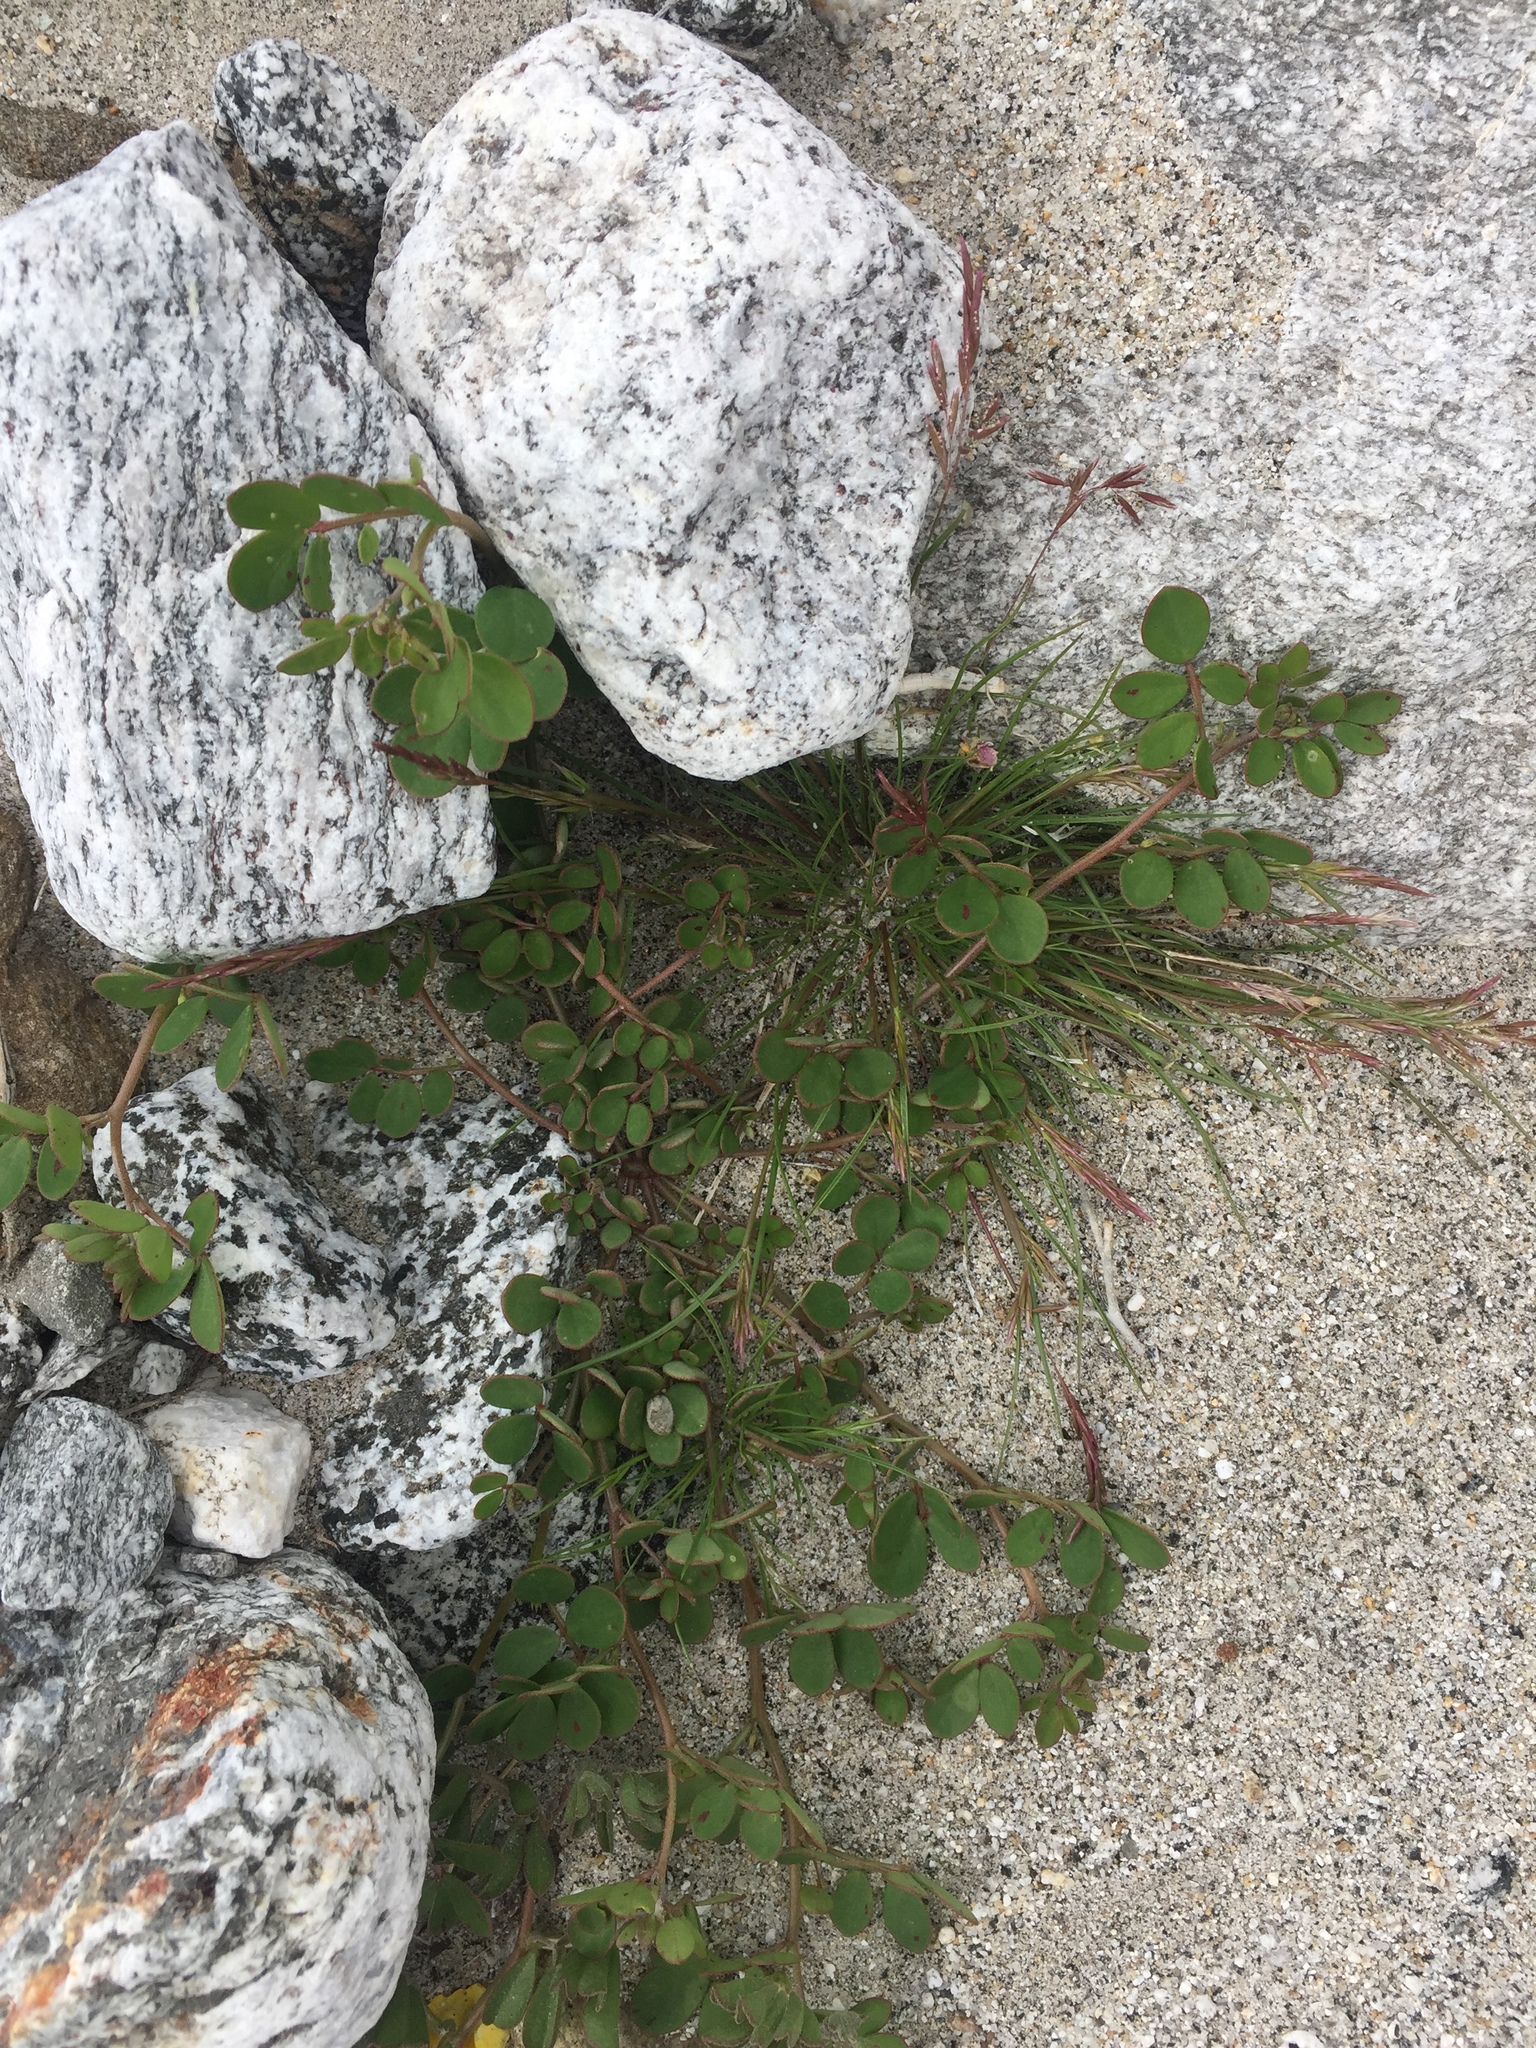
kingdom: Plantae
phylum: Tracheophyta
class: Magnoliopsida
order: Fabales
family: Fabaceae
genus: Acmispon
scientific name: Acmispon maritimus
